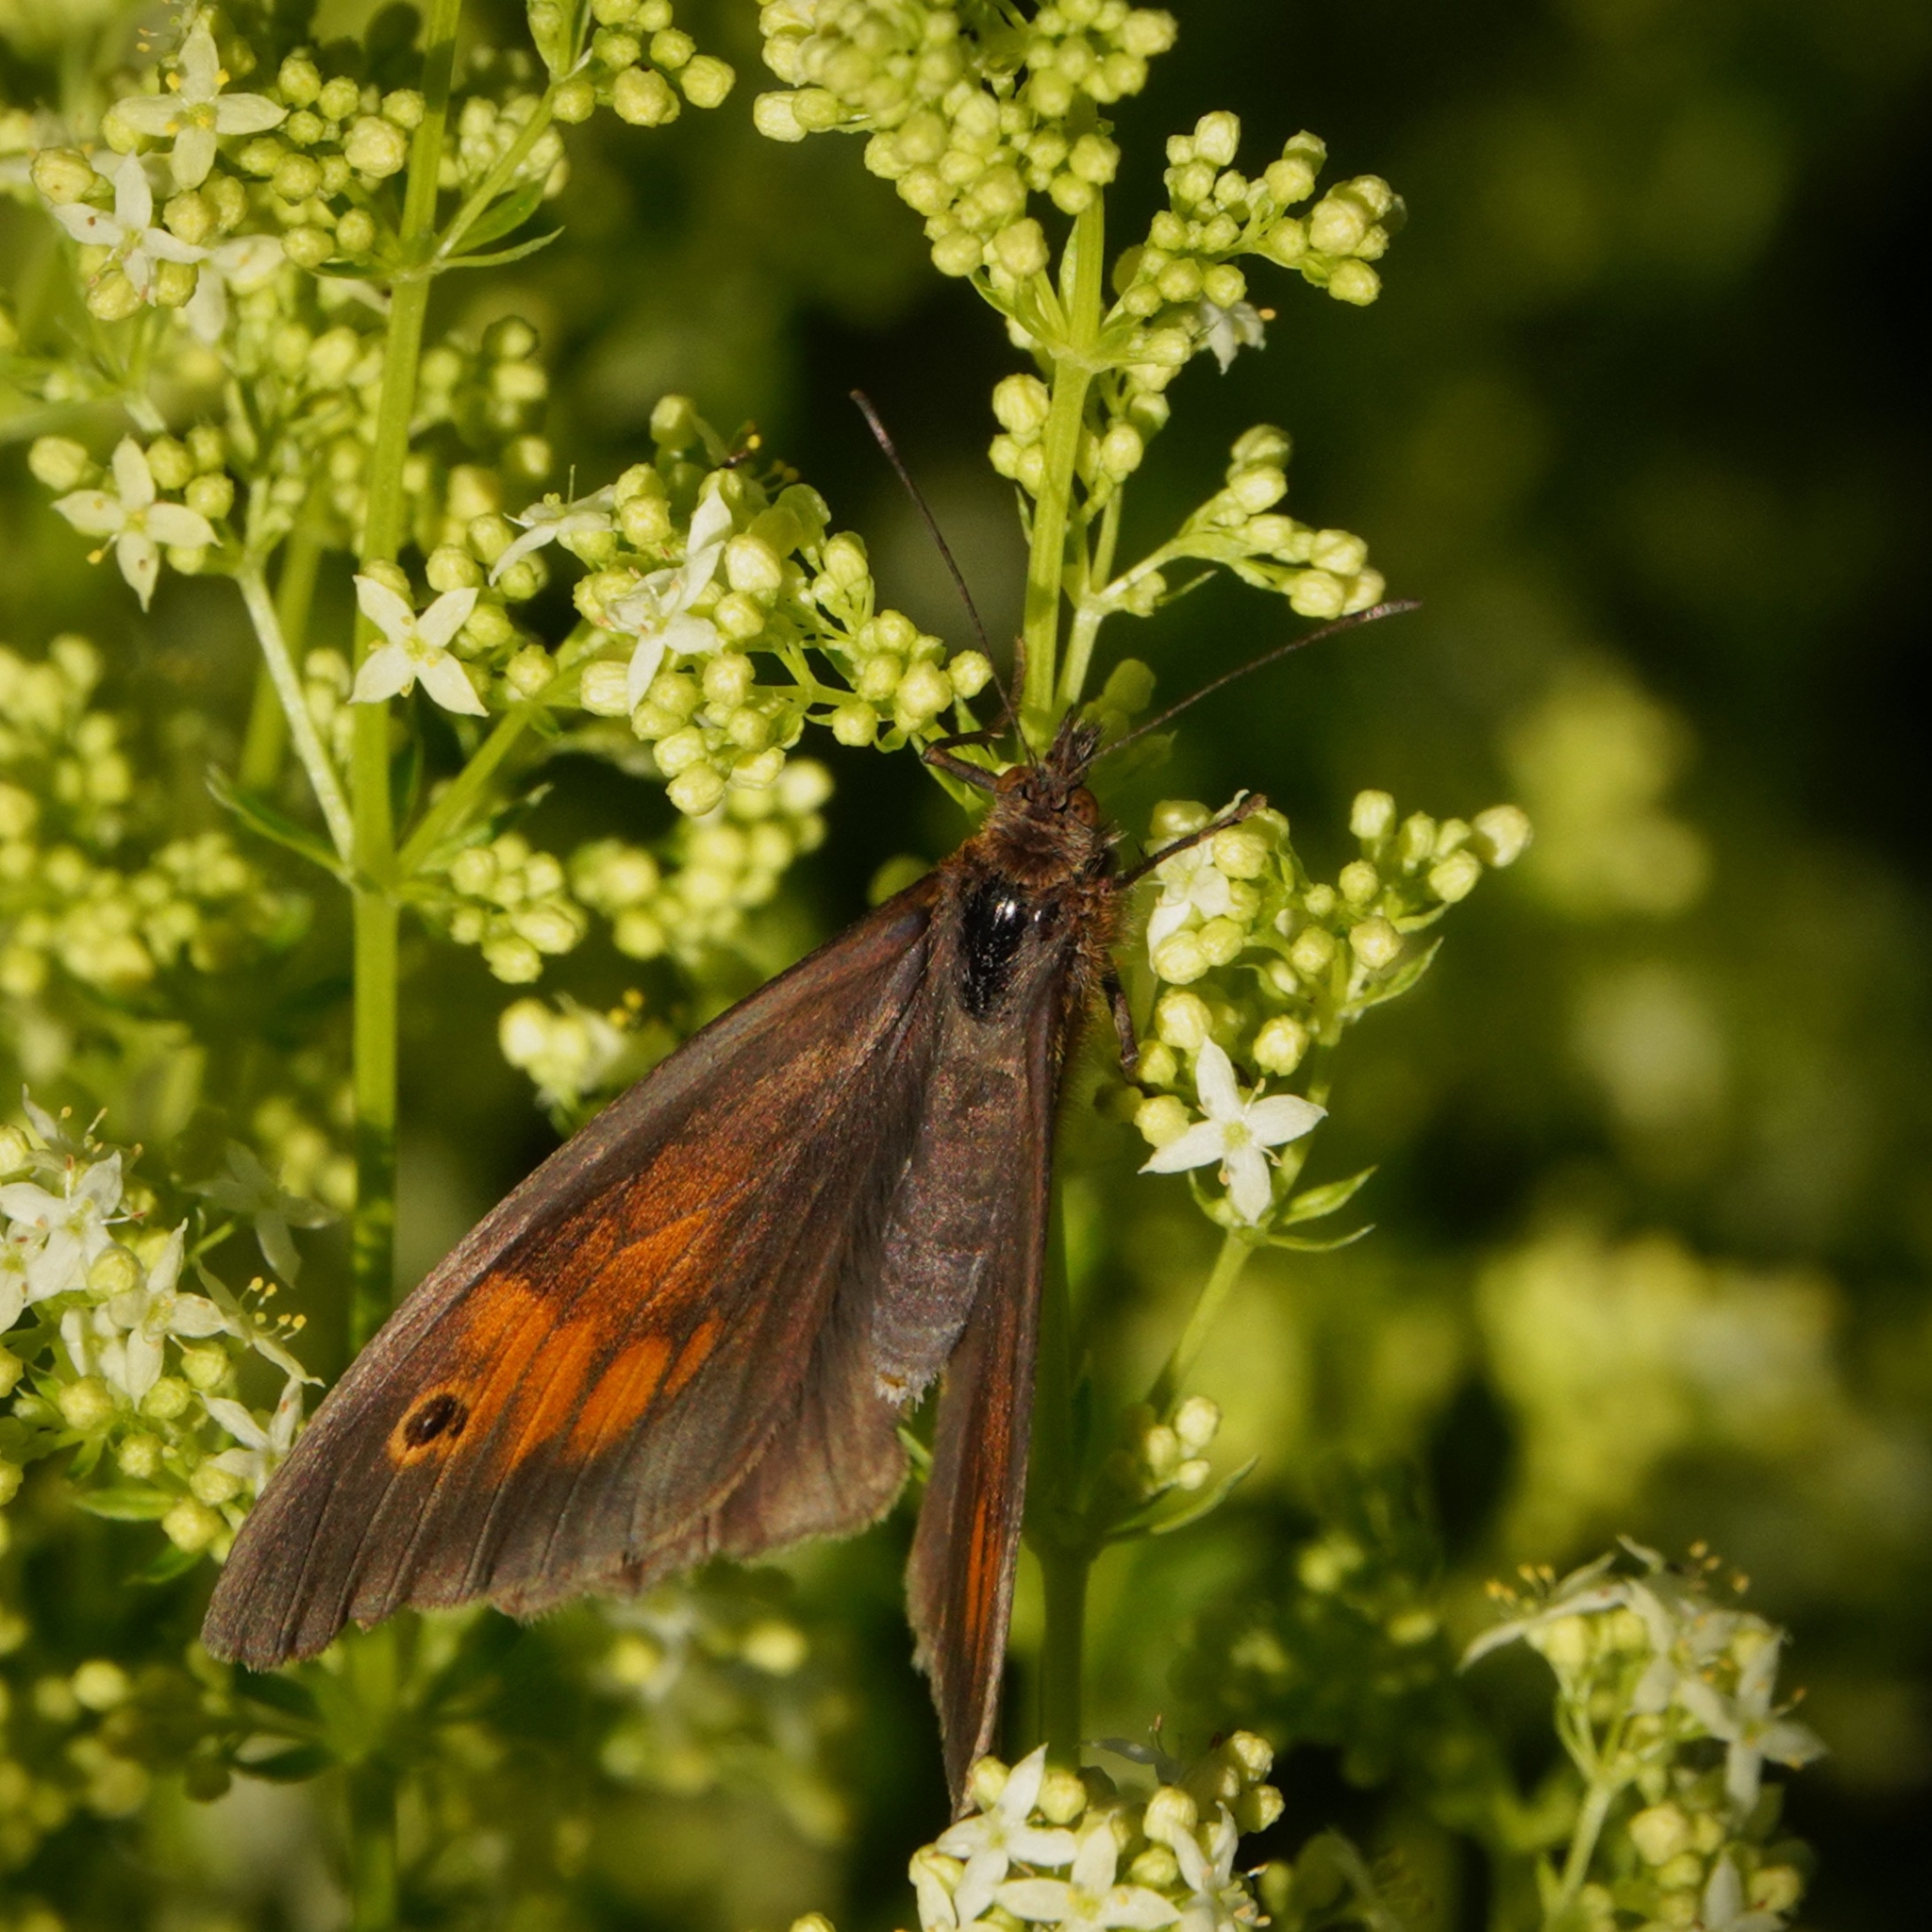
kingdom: Animalia
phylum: Arthropoda
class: Insecta
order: Lepidoptera
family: Nymphalidae
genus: Maniola
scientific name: Maniola jurtina
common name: Meadow brown
